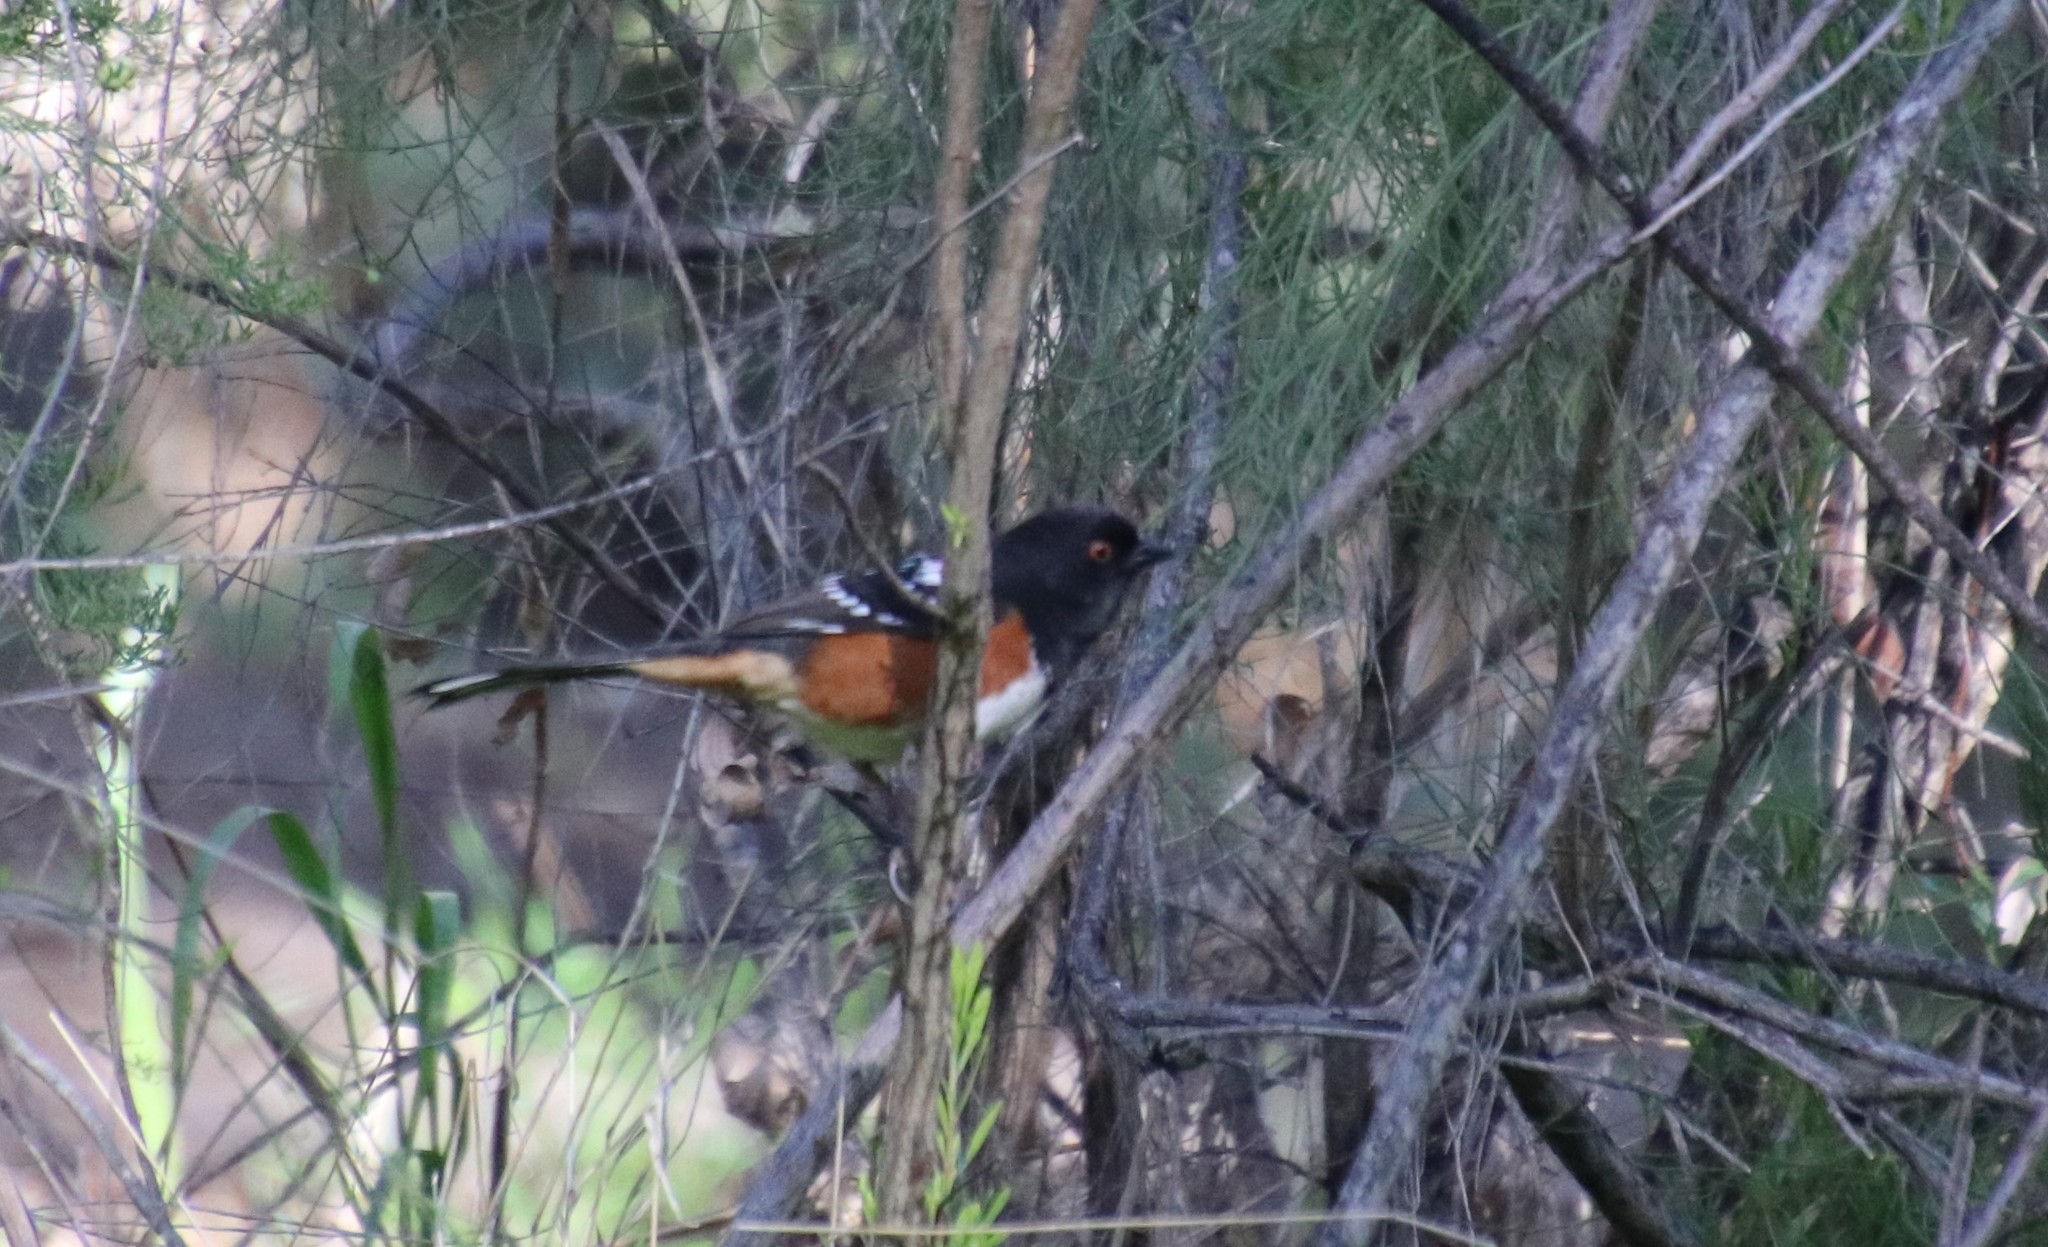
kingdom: Animalia
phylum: Chordata
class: Aves
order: Passeriformes
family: Passerellidae
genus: Pipilo
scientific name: Pipilo maculatus
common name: Spotted towhee
